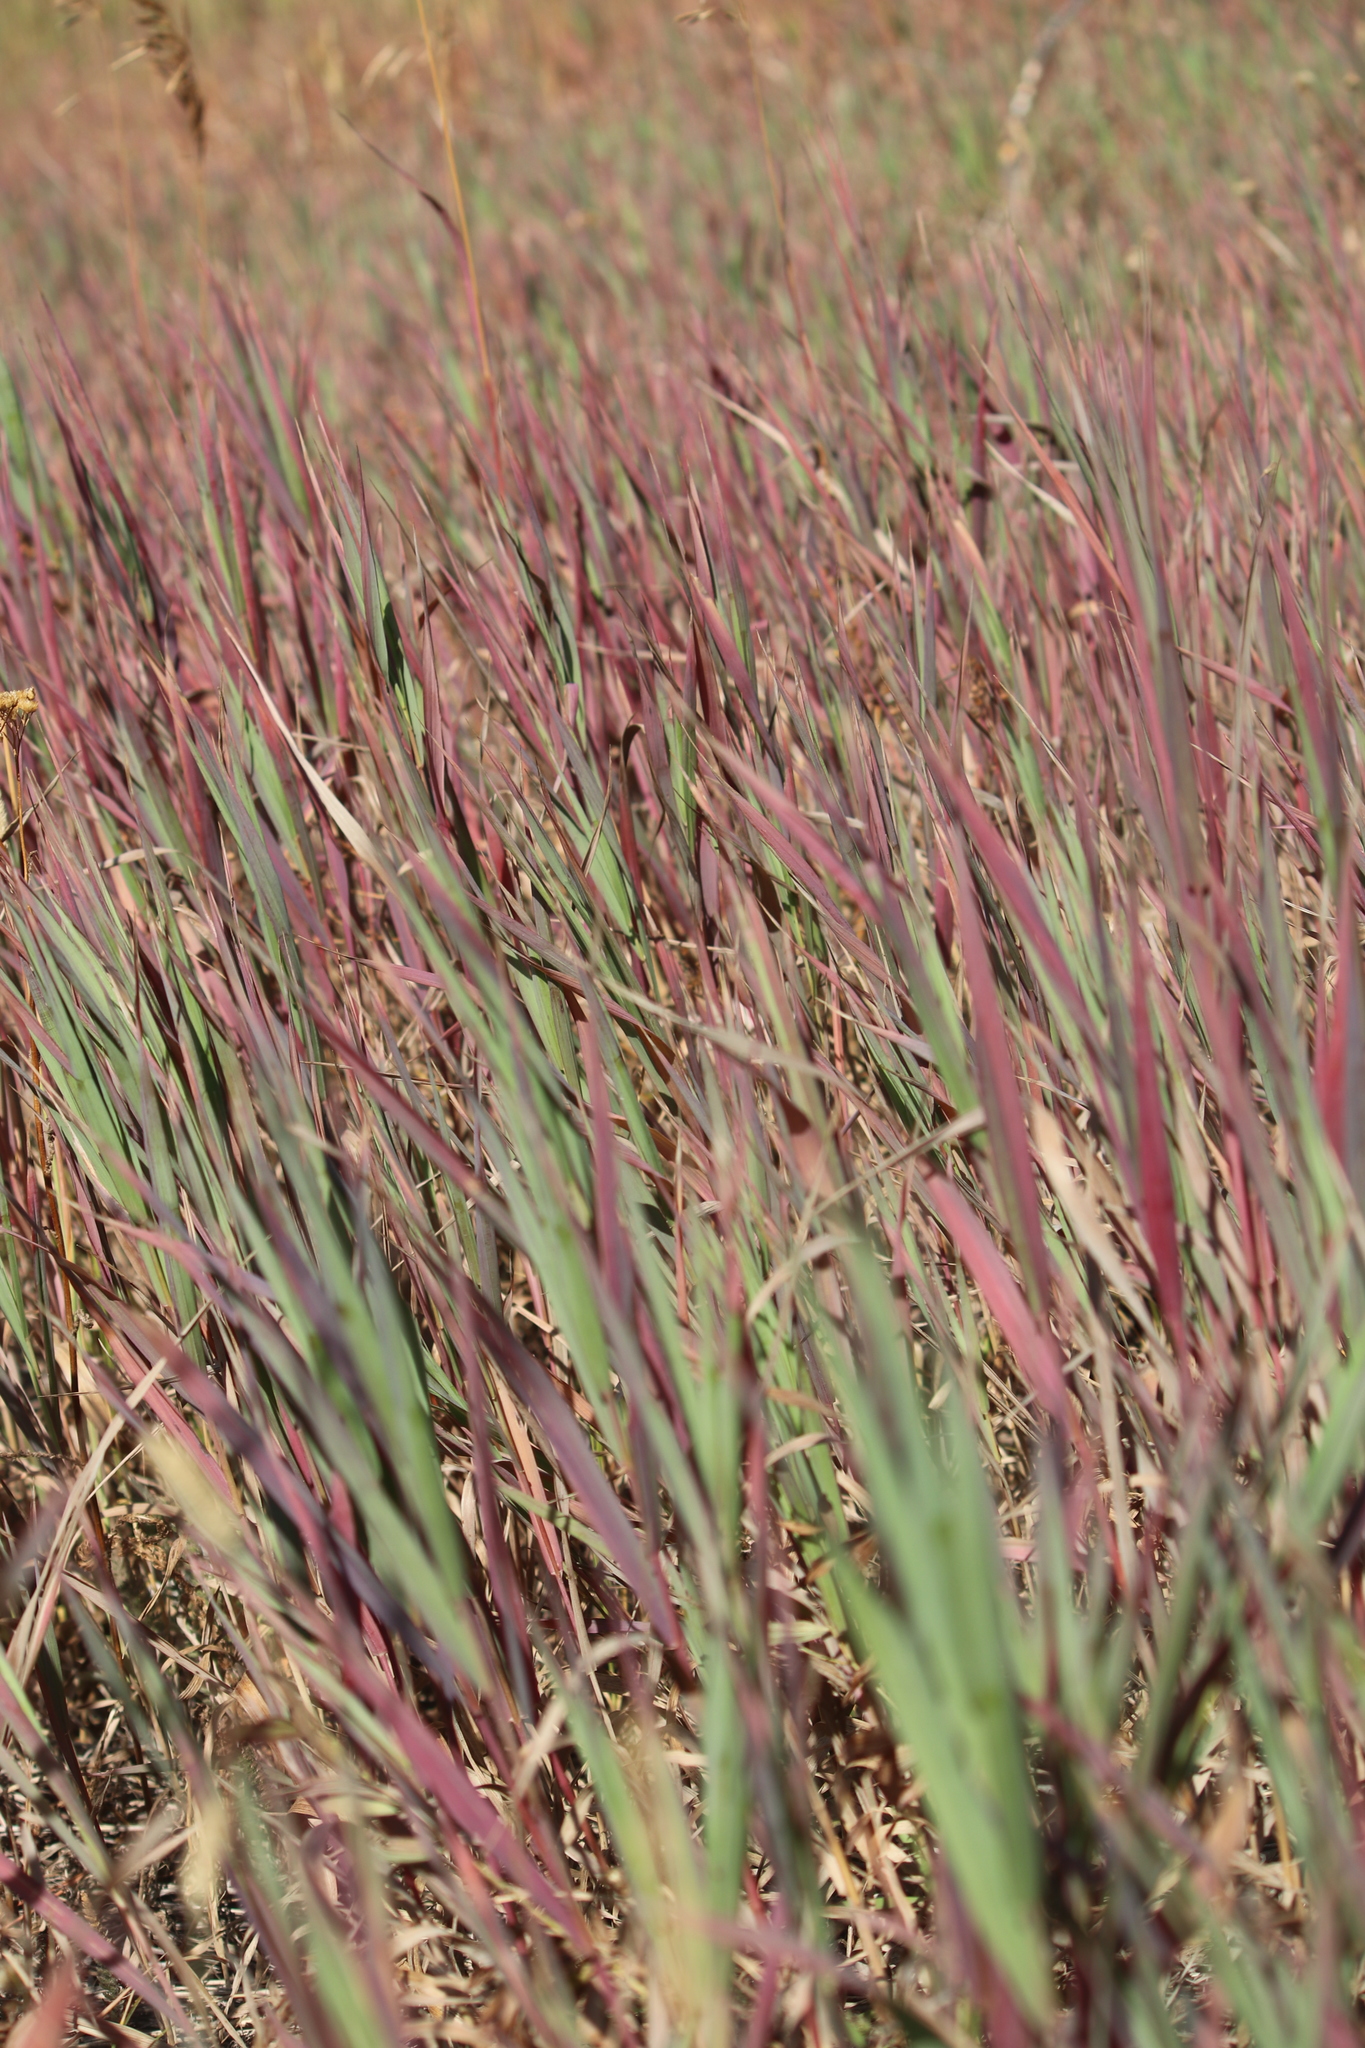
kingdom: Plantae
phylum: Tracheophyta
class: Liliopsida
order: Poales
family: Poaceae
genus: Bromus
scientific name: Bromus inermis
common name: Smooth brome
